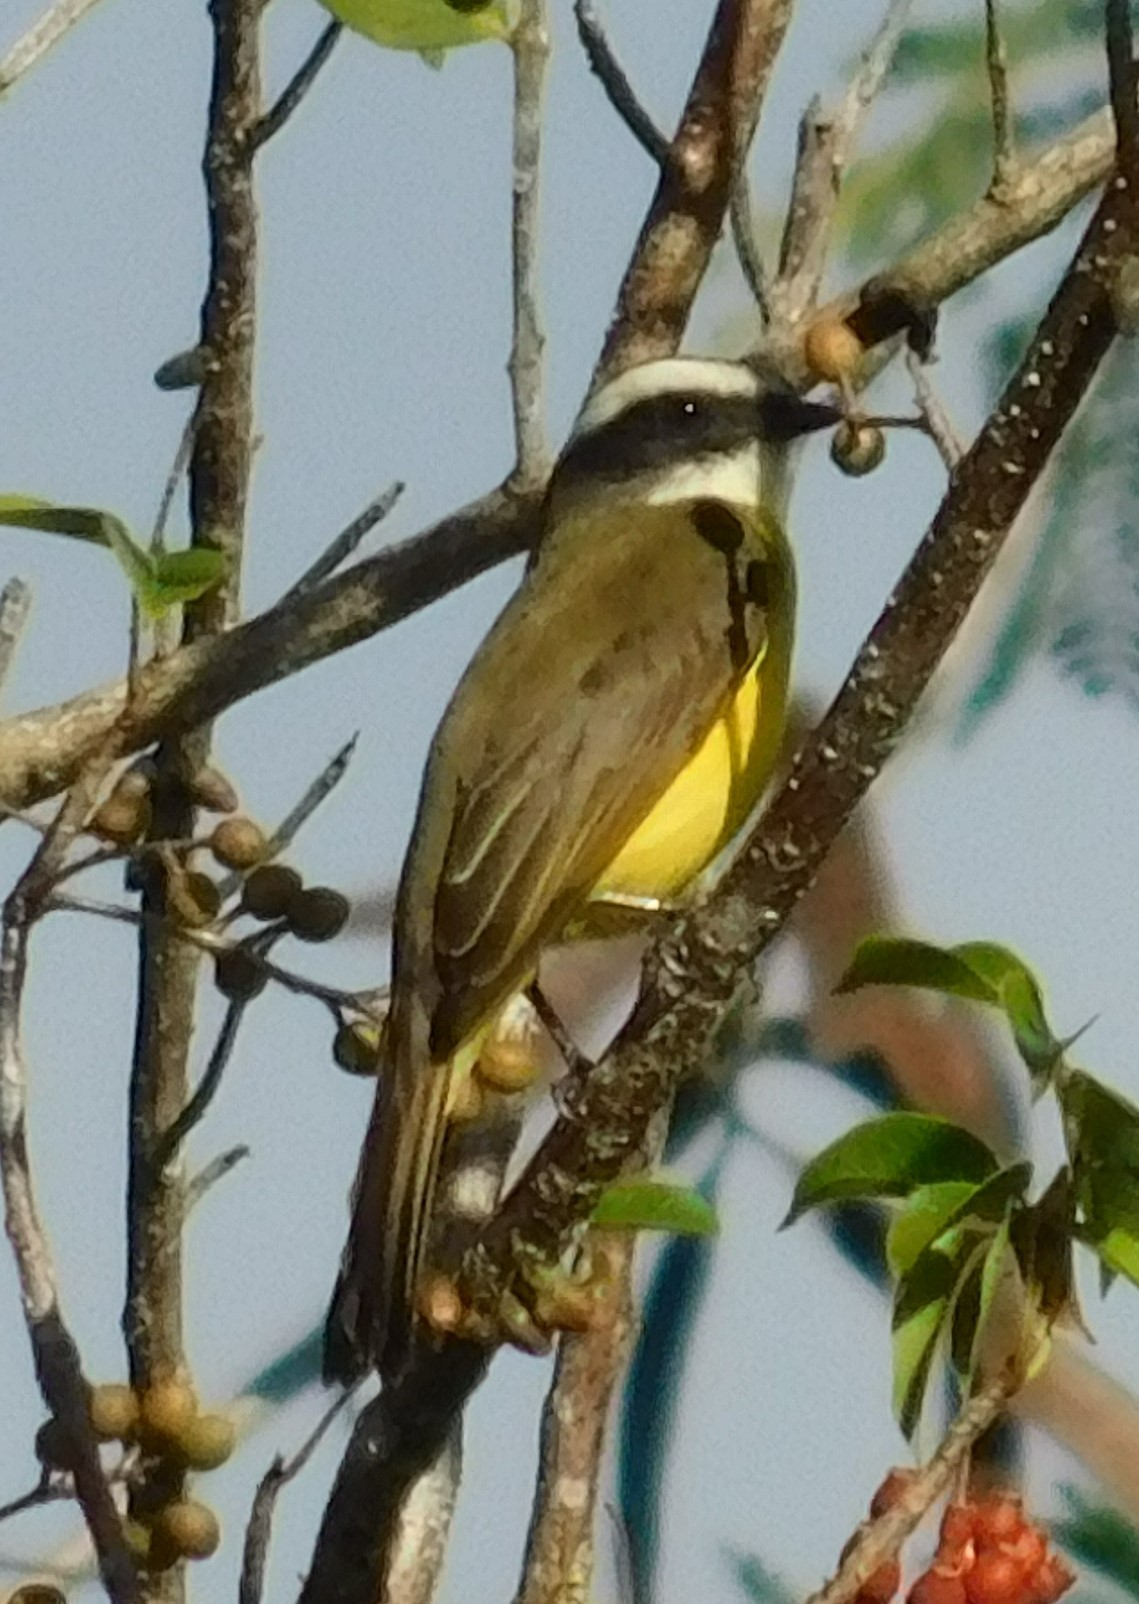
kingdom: Animalia
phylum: Chordata
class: Aves
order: Passeriformes
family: Tyrannidae
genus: Myiozetetes
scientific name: Myiozetetes similis
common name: Social flycatcher
